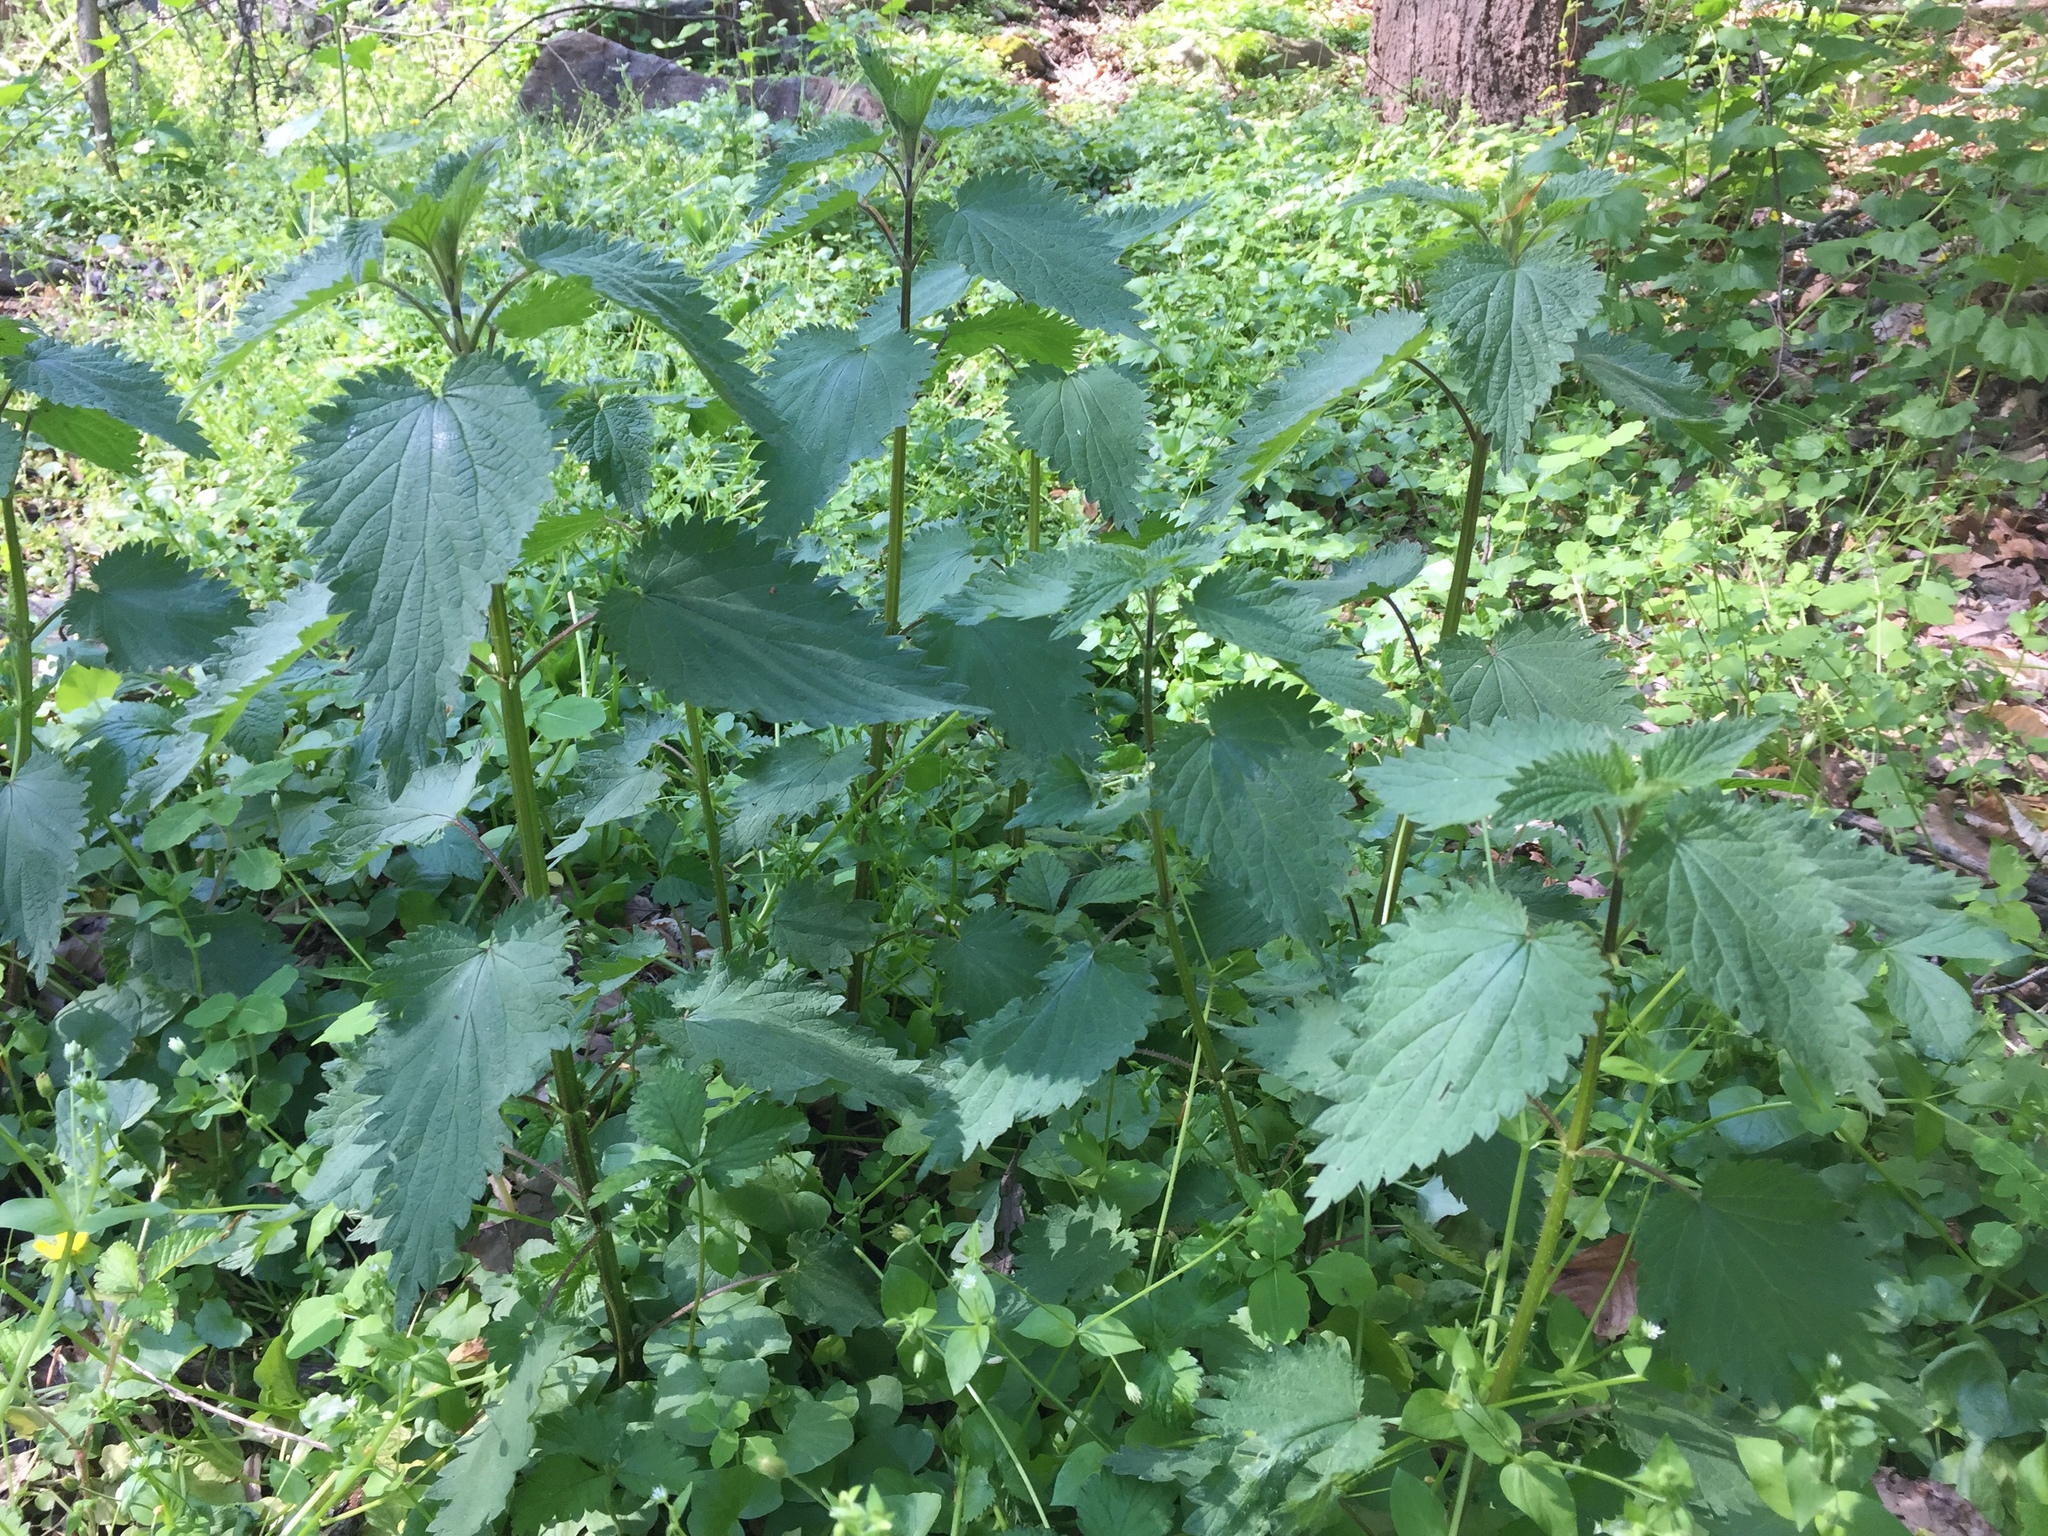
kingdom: Plantae
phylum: Tracheophyta
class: Magnoliopsida
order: Rosales
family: Urticaceae
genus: Urtica
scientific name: Urtica dioica
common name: Common nettle
